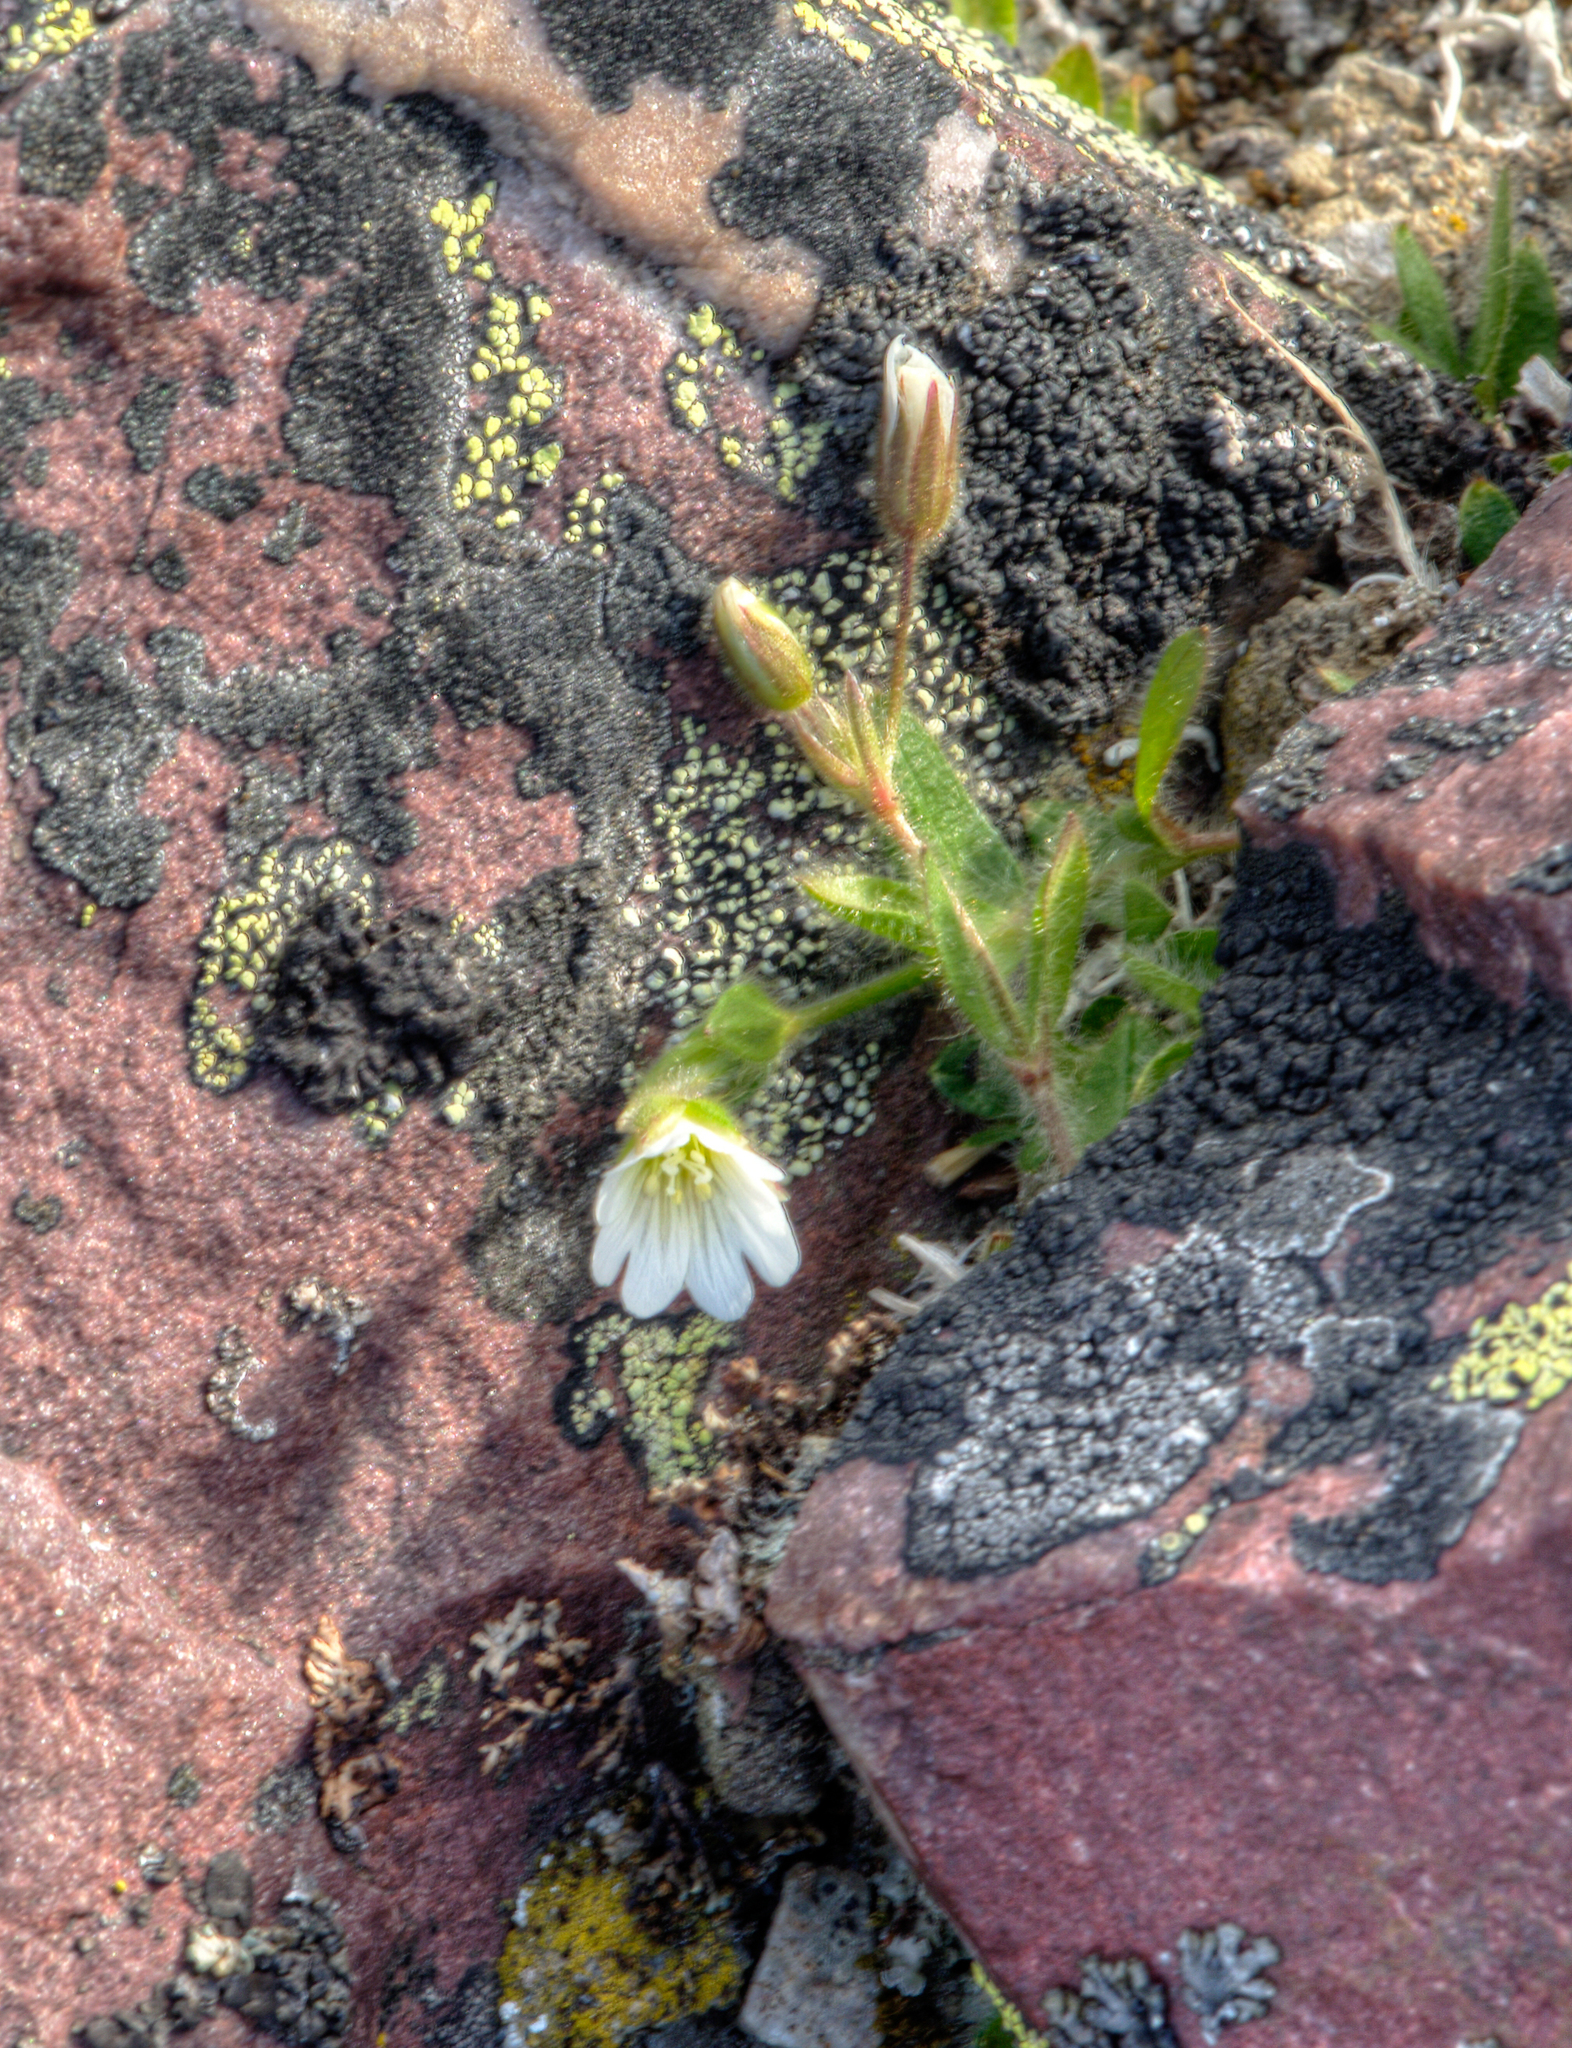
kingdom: Plantae
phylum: Tracheophyta
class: Magnoliopsida
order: Caryophyllales
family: Caryophyllaceae
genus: Cerastium
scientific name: Cerastium arcticum
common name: Arctic mouse-ear
